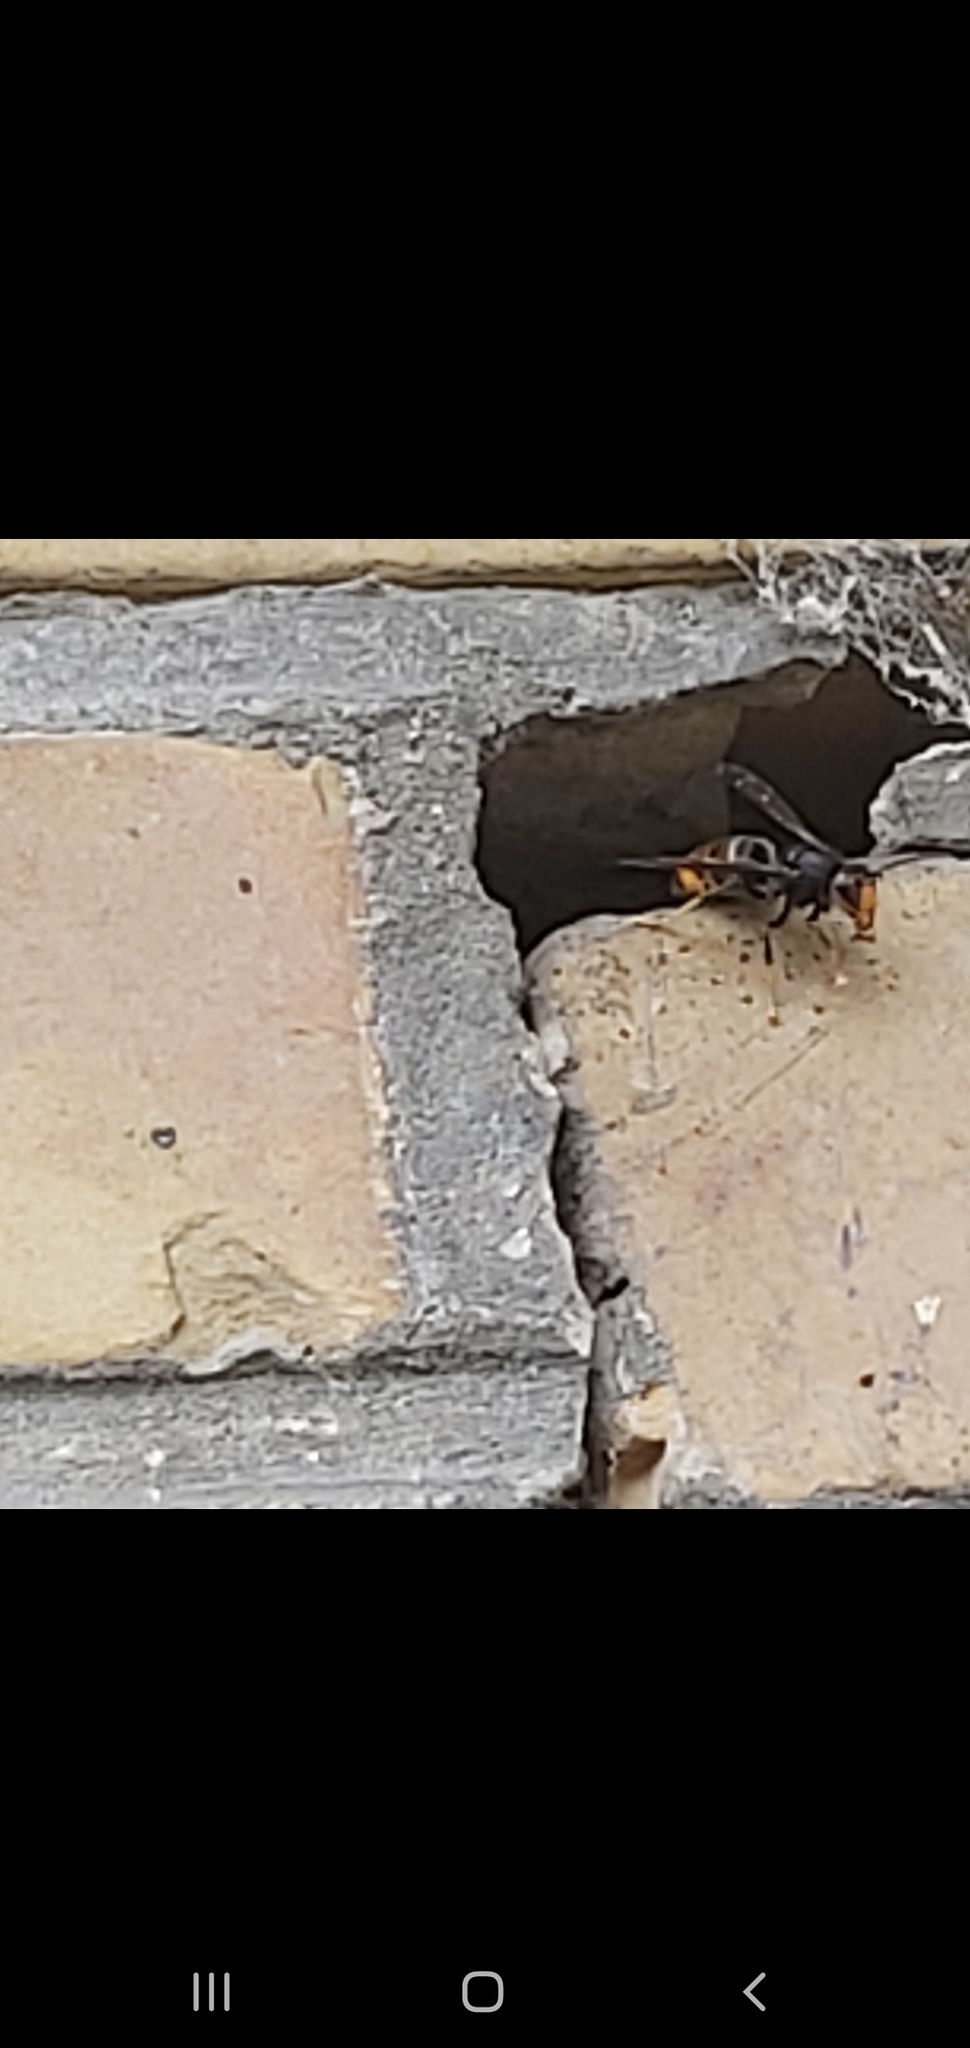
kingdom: Animalia
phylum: Arthropoda
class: Insecta
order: Hymenoptera
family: Vespidae
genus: Vespa
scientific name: Vespa velutina
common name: Asian hornet
